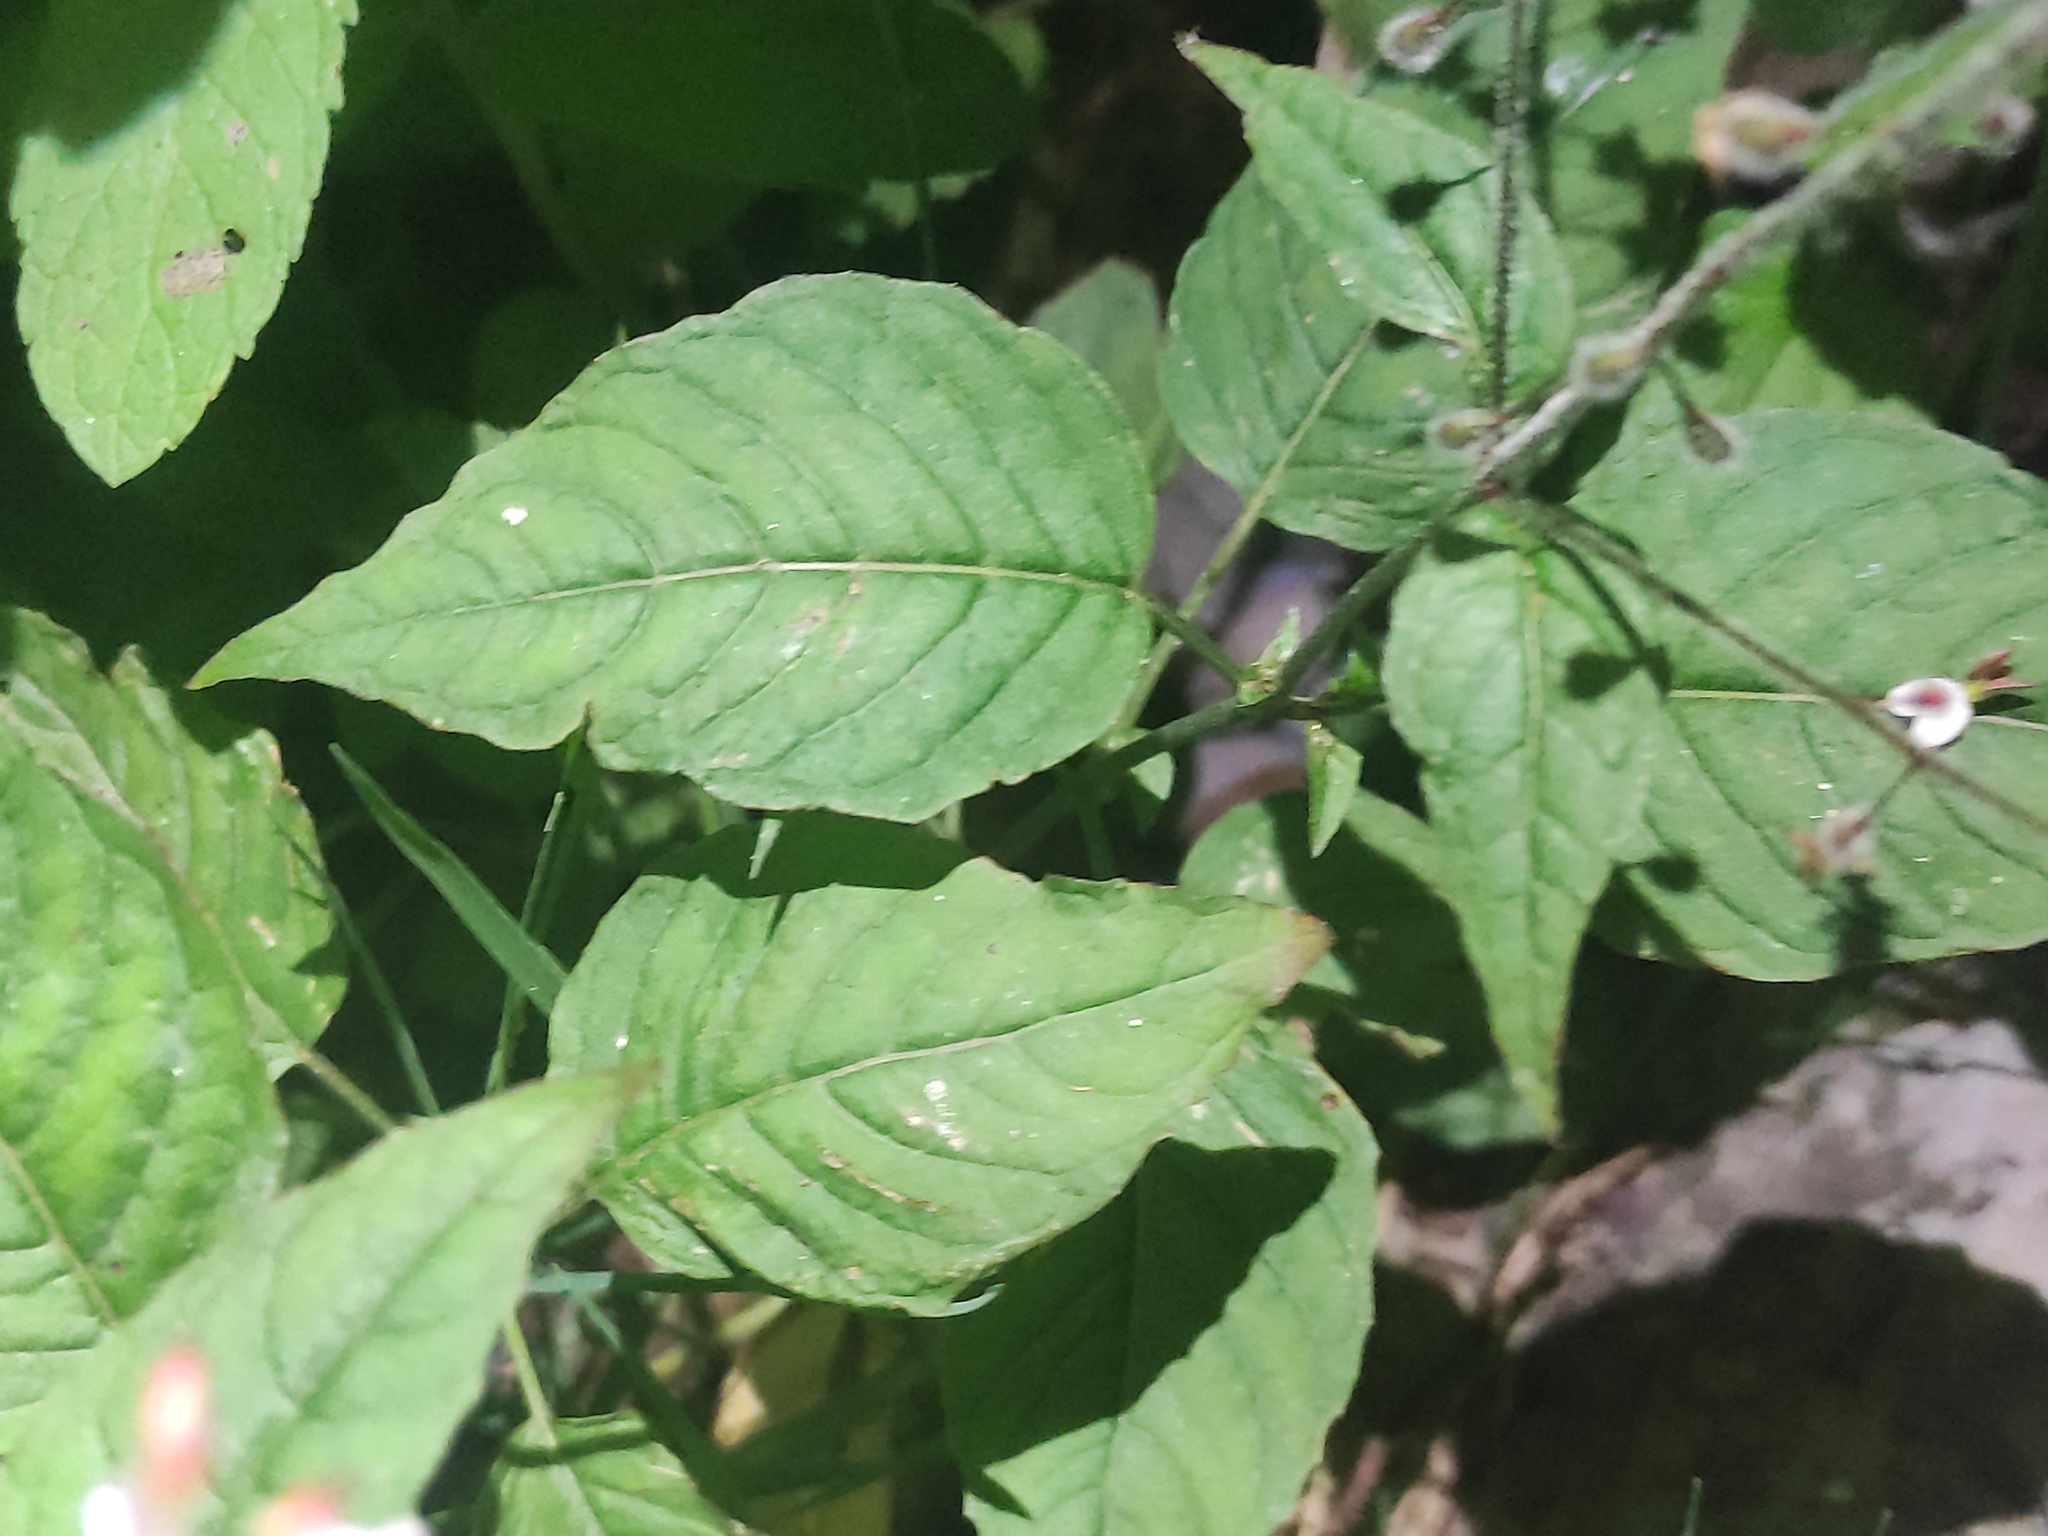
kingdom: Plantae
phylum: Tracheophyta
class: Magnoliopsida
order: Myrtales
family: Onagraceae
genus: Circaea
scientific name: Circaea lutetiana
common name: Enchanter's-nightshade
